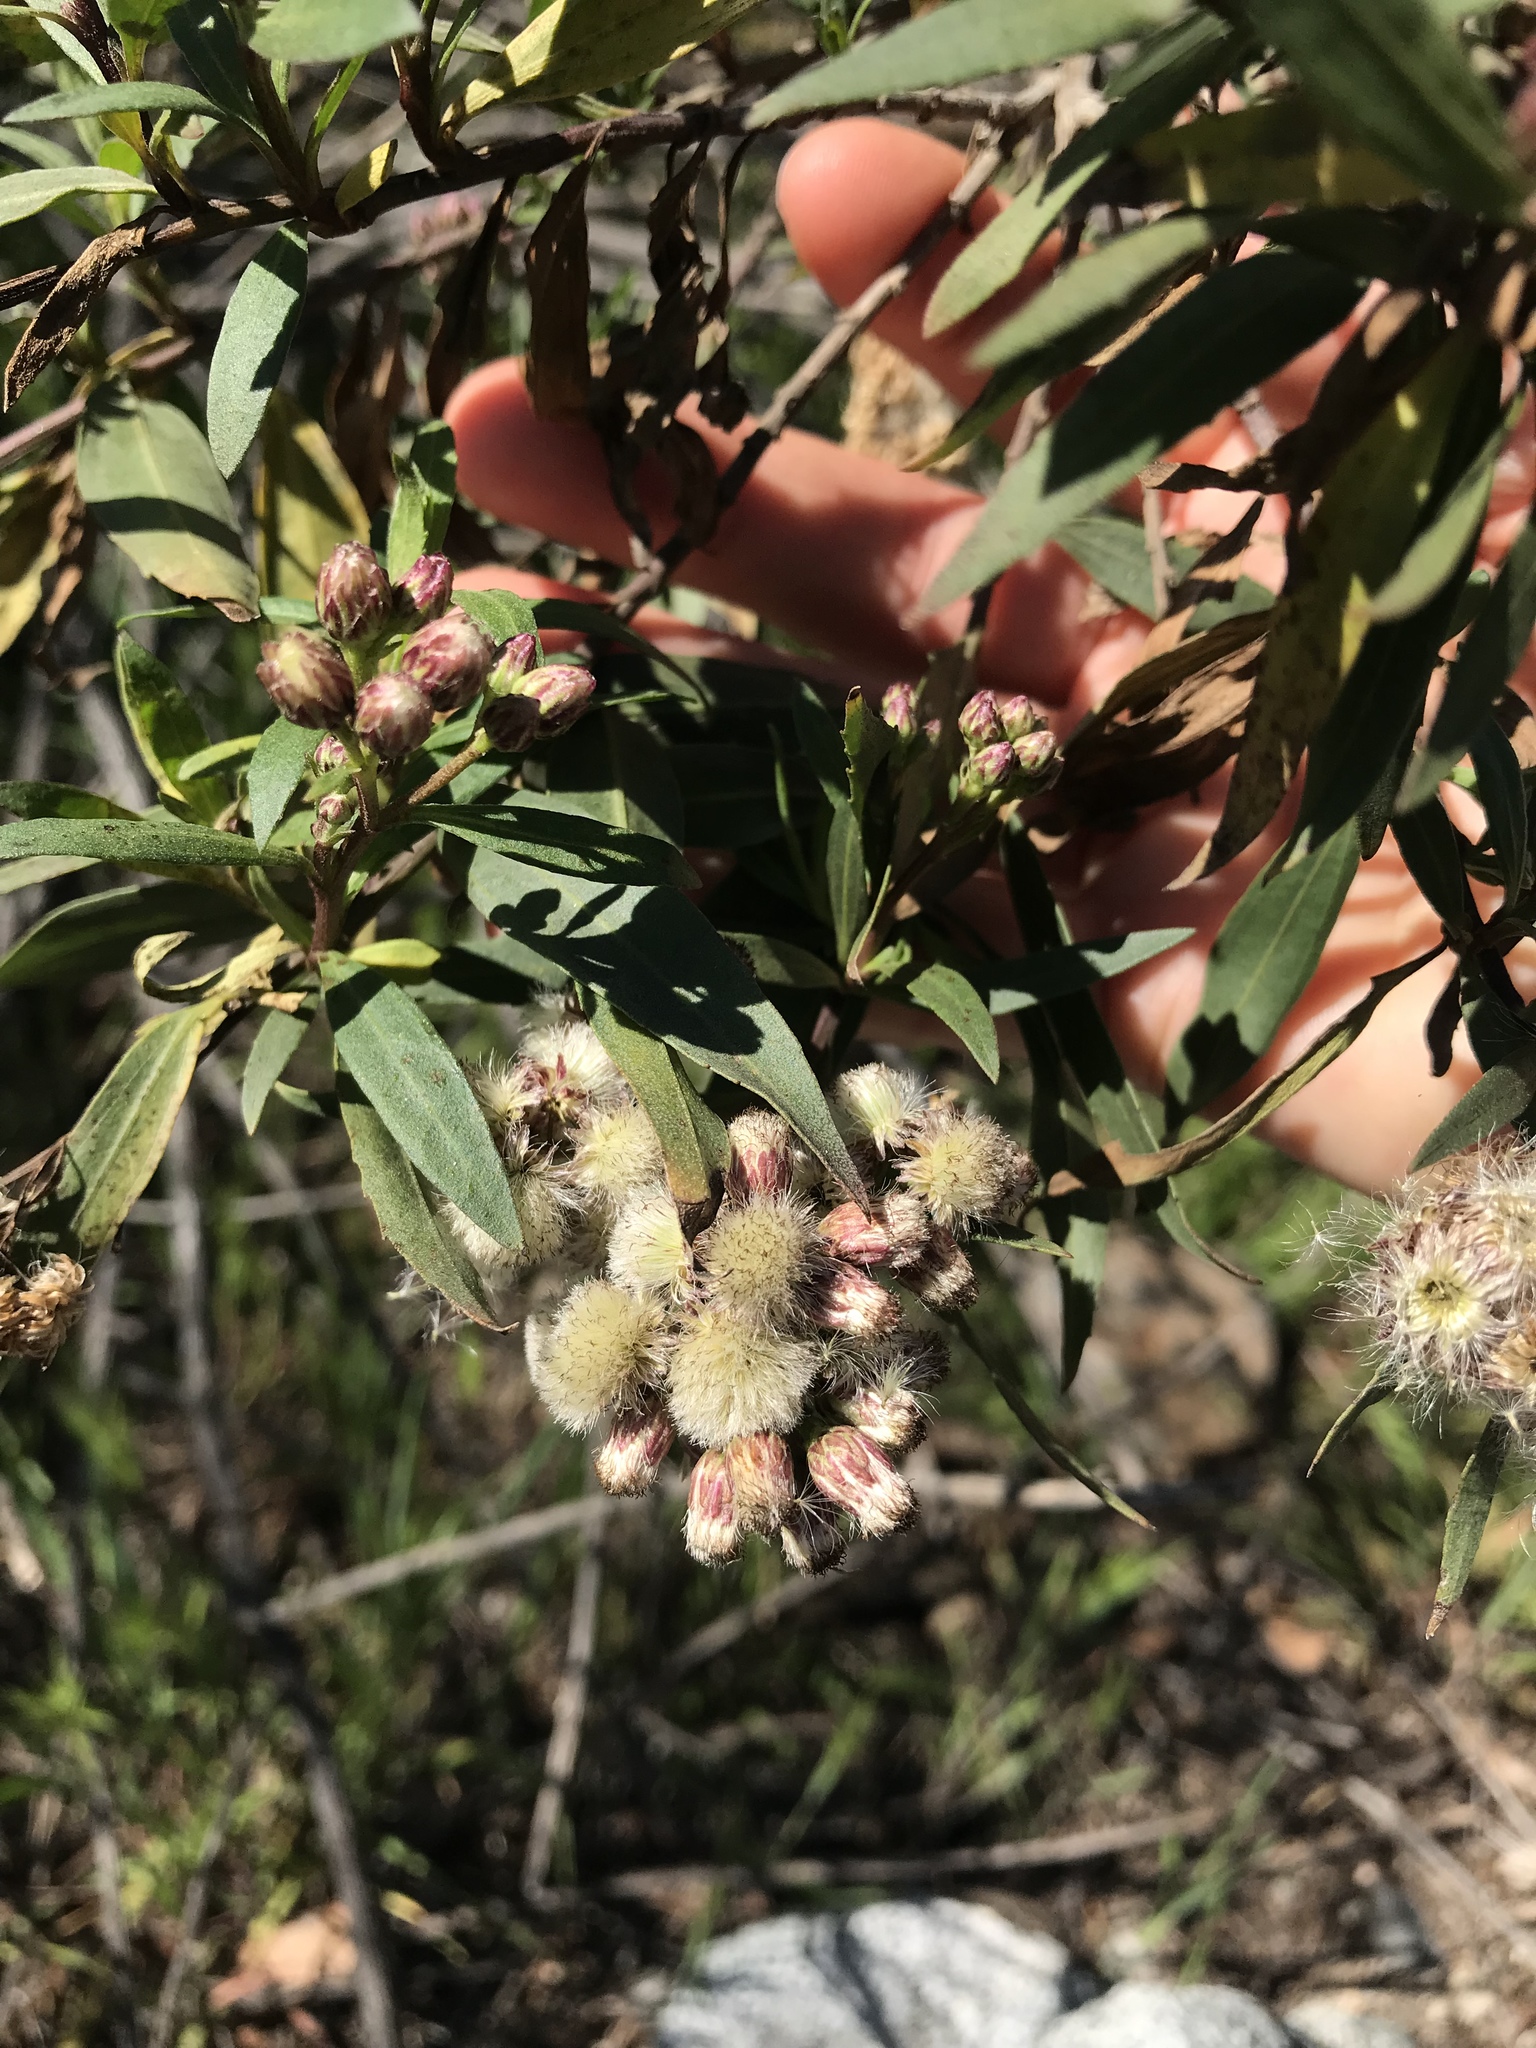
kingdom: Plantae
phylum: Tracheophyta
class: Magnoliopsida
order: Asterales
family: Asteraceae
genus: Baccharis
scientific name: Baccharis salicifolia
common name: Sticky baccharis
